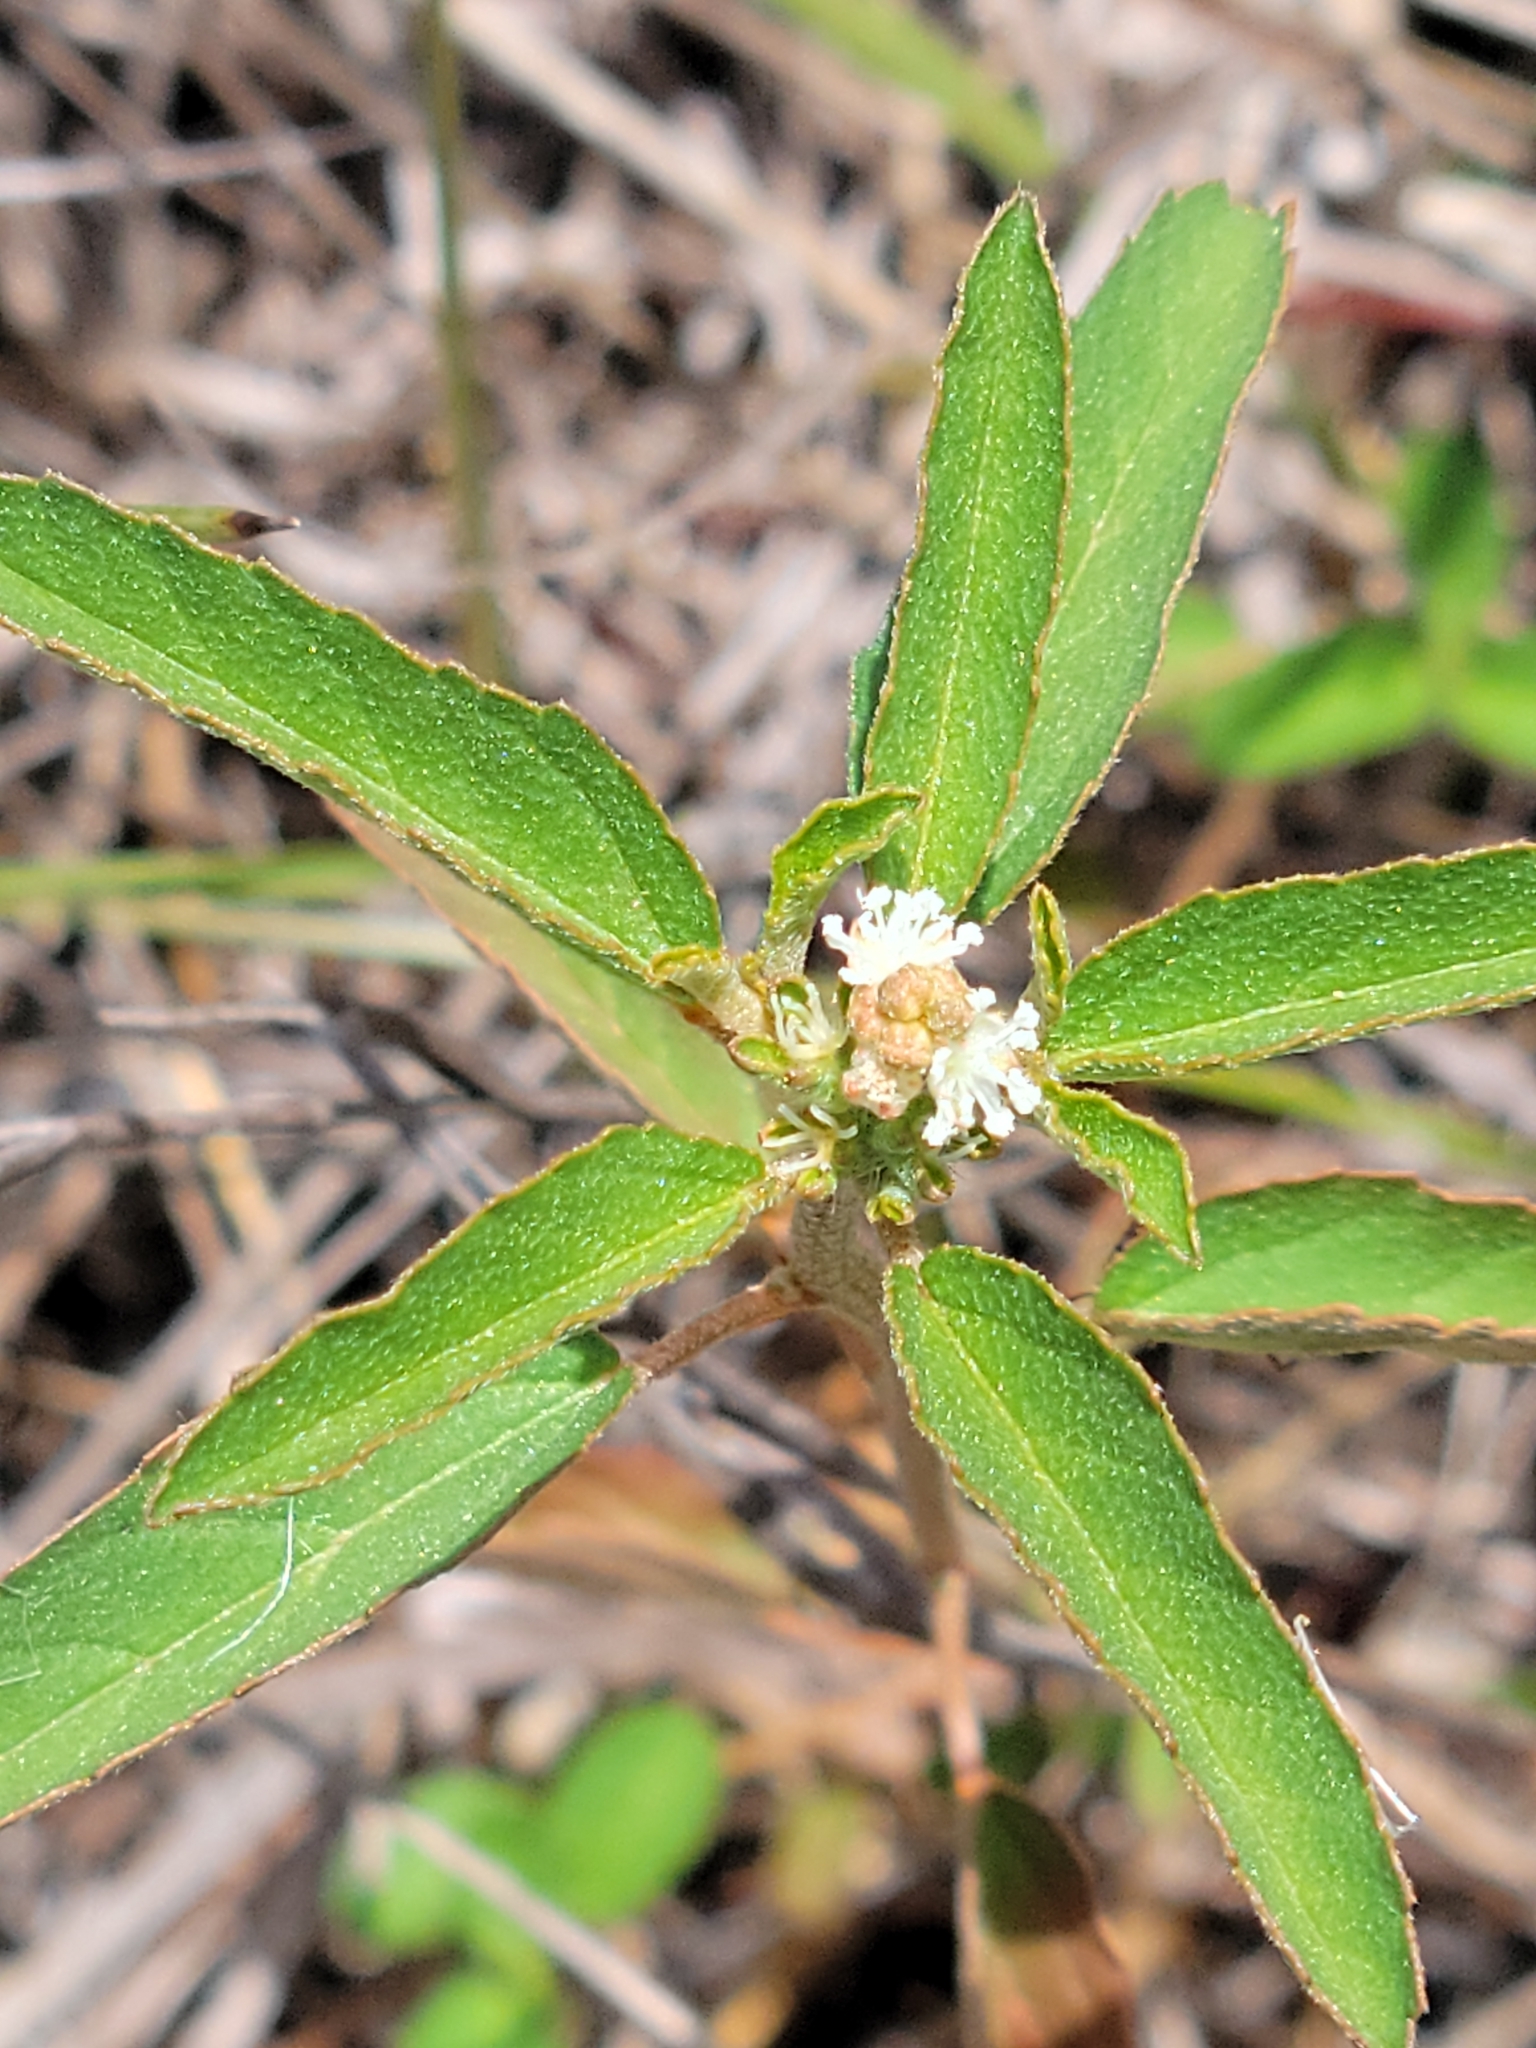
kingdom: Plantae
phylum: Tracheophyta
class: Magnoliopsida
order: Malpighiales
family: Euphorbiaceae
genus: Croton
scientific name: Croton glandulosus
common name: Tropic croton
